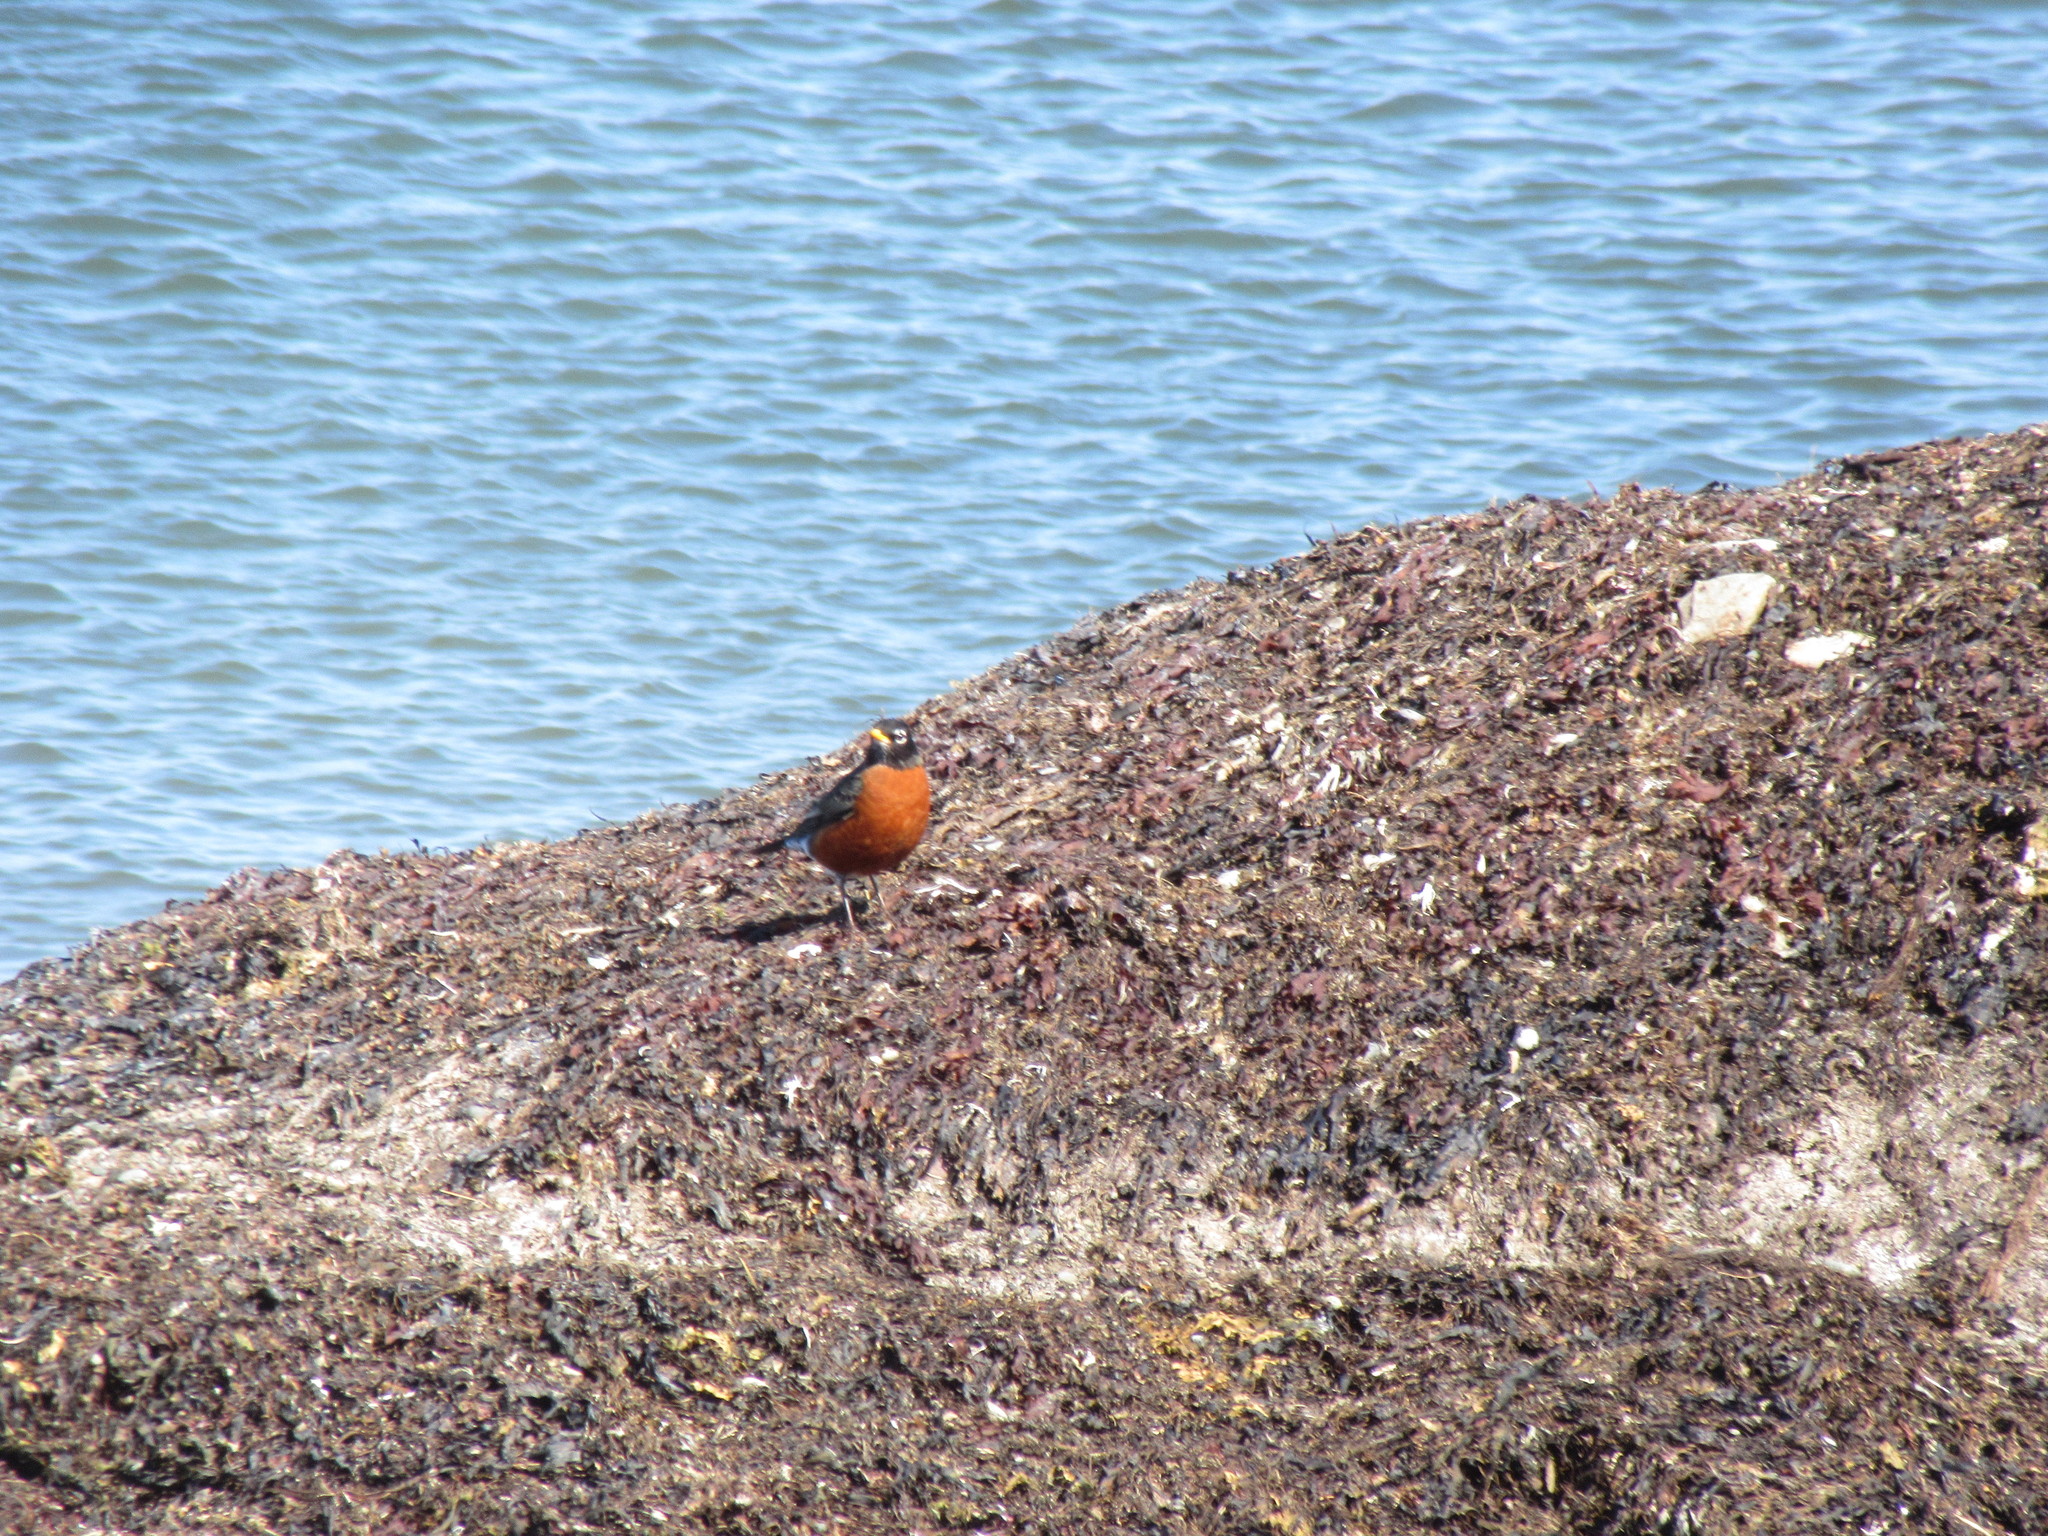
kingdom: Animalia
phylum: Chordata
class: Aves
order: Passeriformes
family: Turdidae
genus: Turdus
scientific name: Turdus migratorius
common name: American robin
